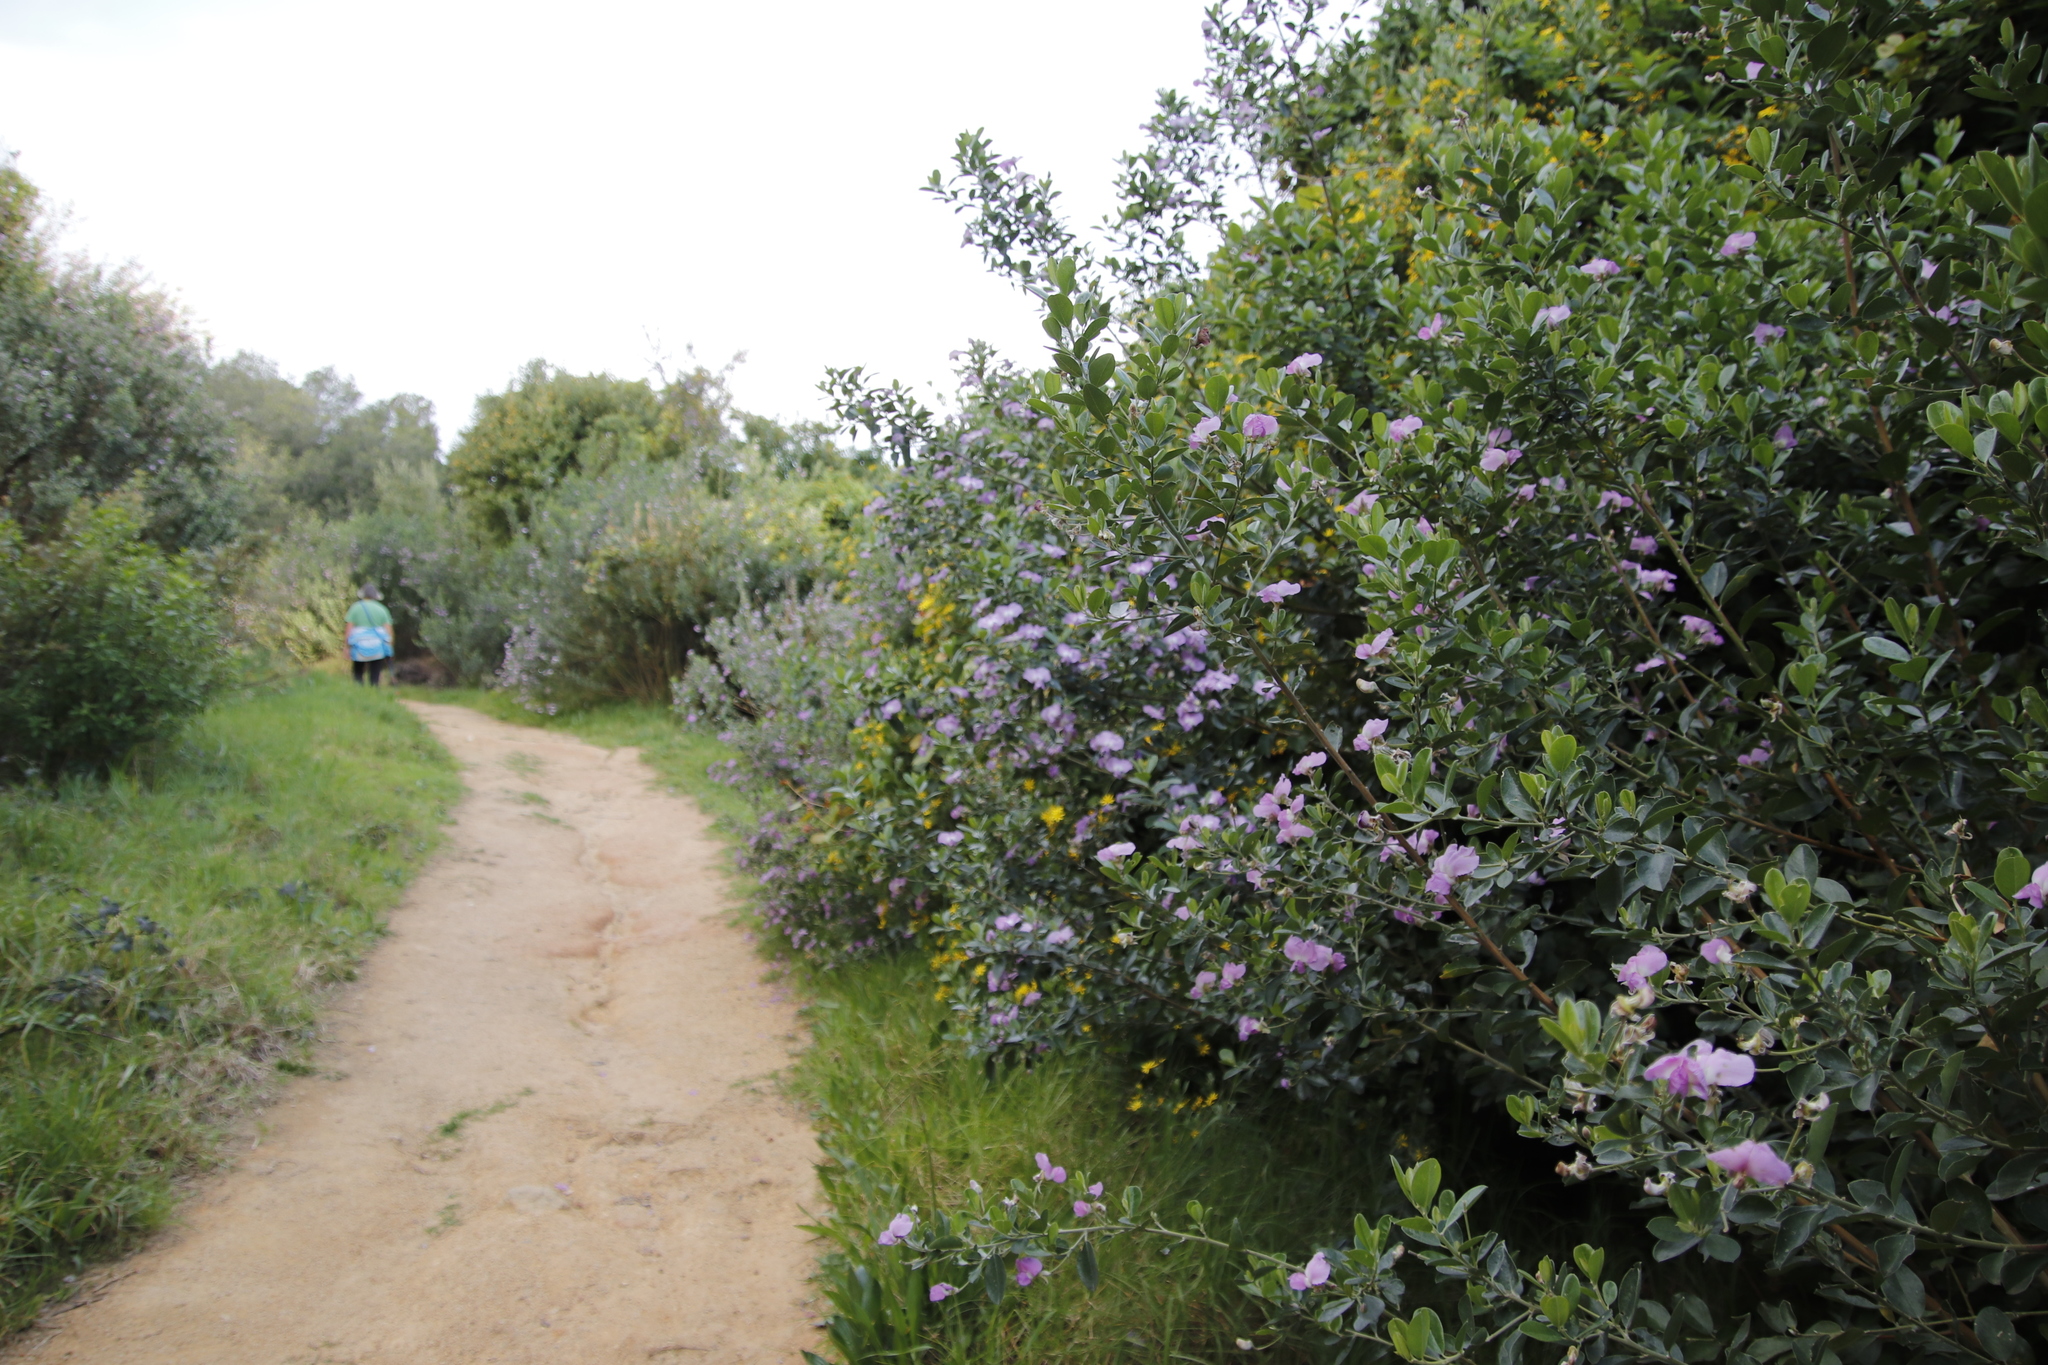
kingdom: Plantae
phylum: Tracheophyta
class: Magnoliopsida
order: Fabales
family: Fabaceae
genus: Podalyria
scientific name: Podalyria calyptrata
